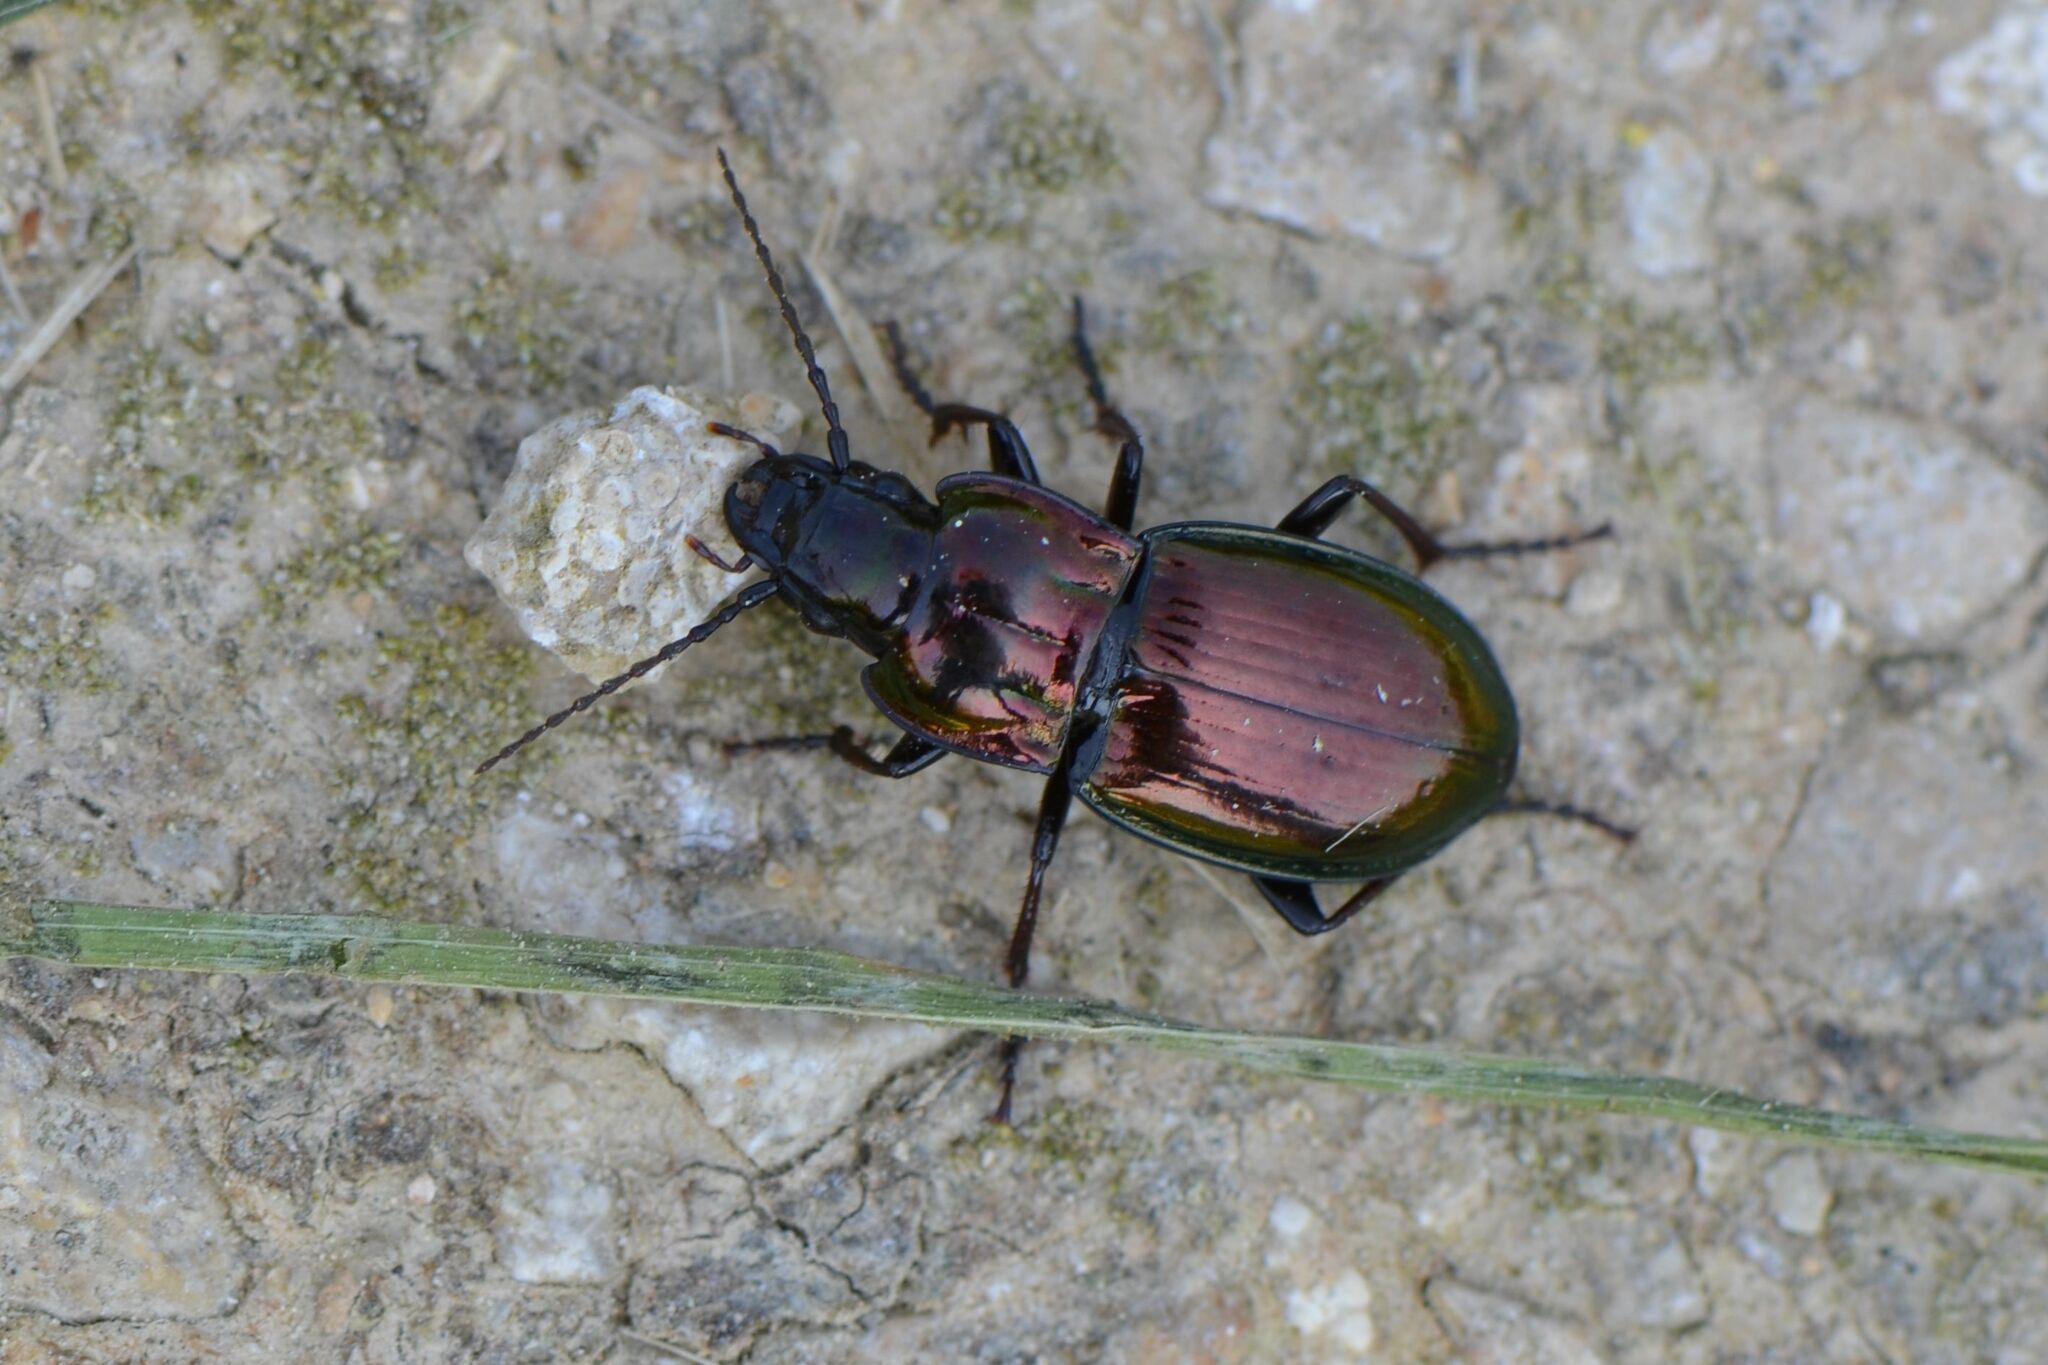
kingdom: Animalia
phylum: Arthropoda
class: Insecta
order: Coleoptera
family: Carabidae
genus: Pterostichus
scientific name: Pterostichus burmeisteri
